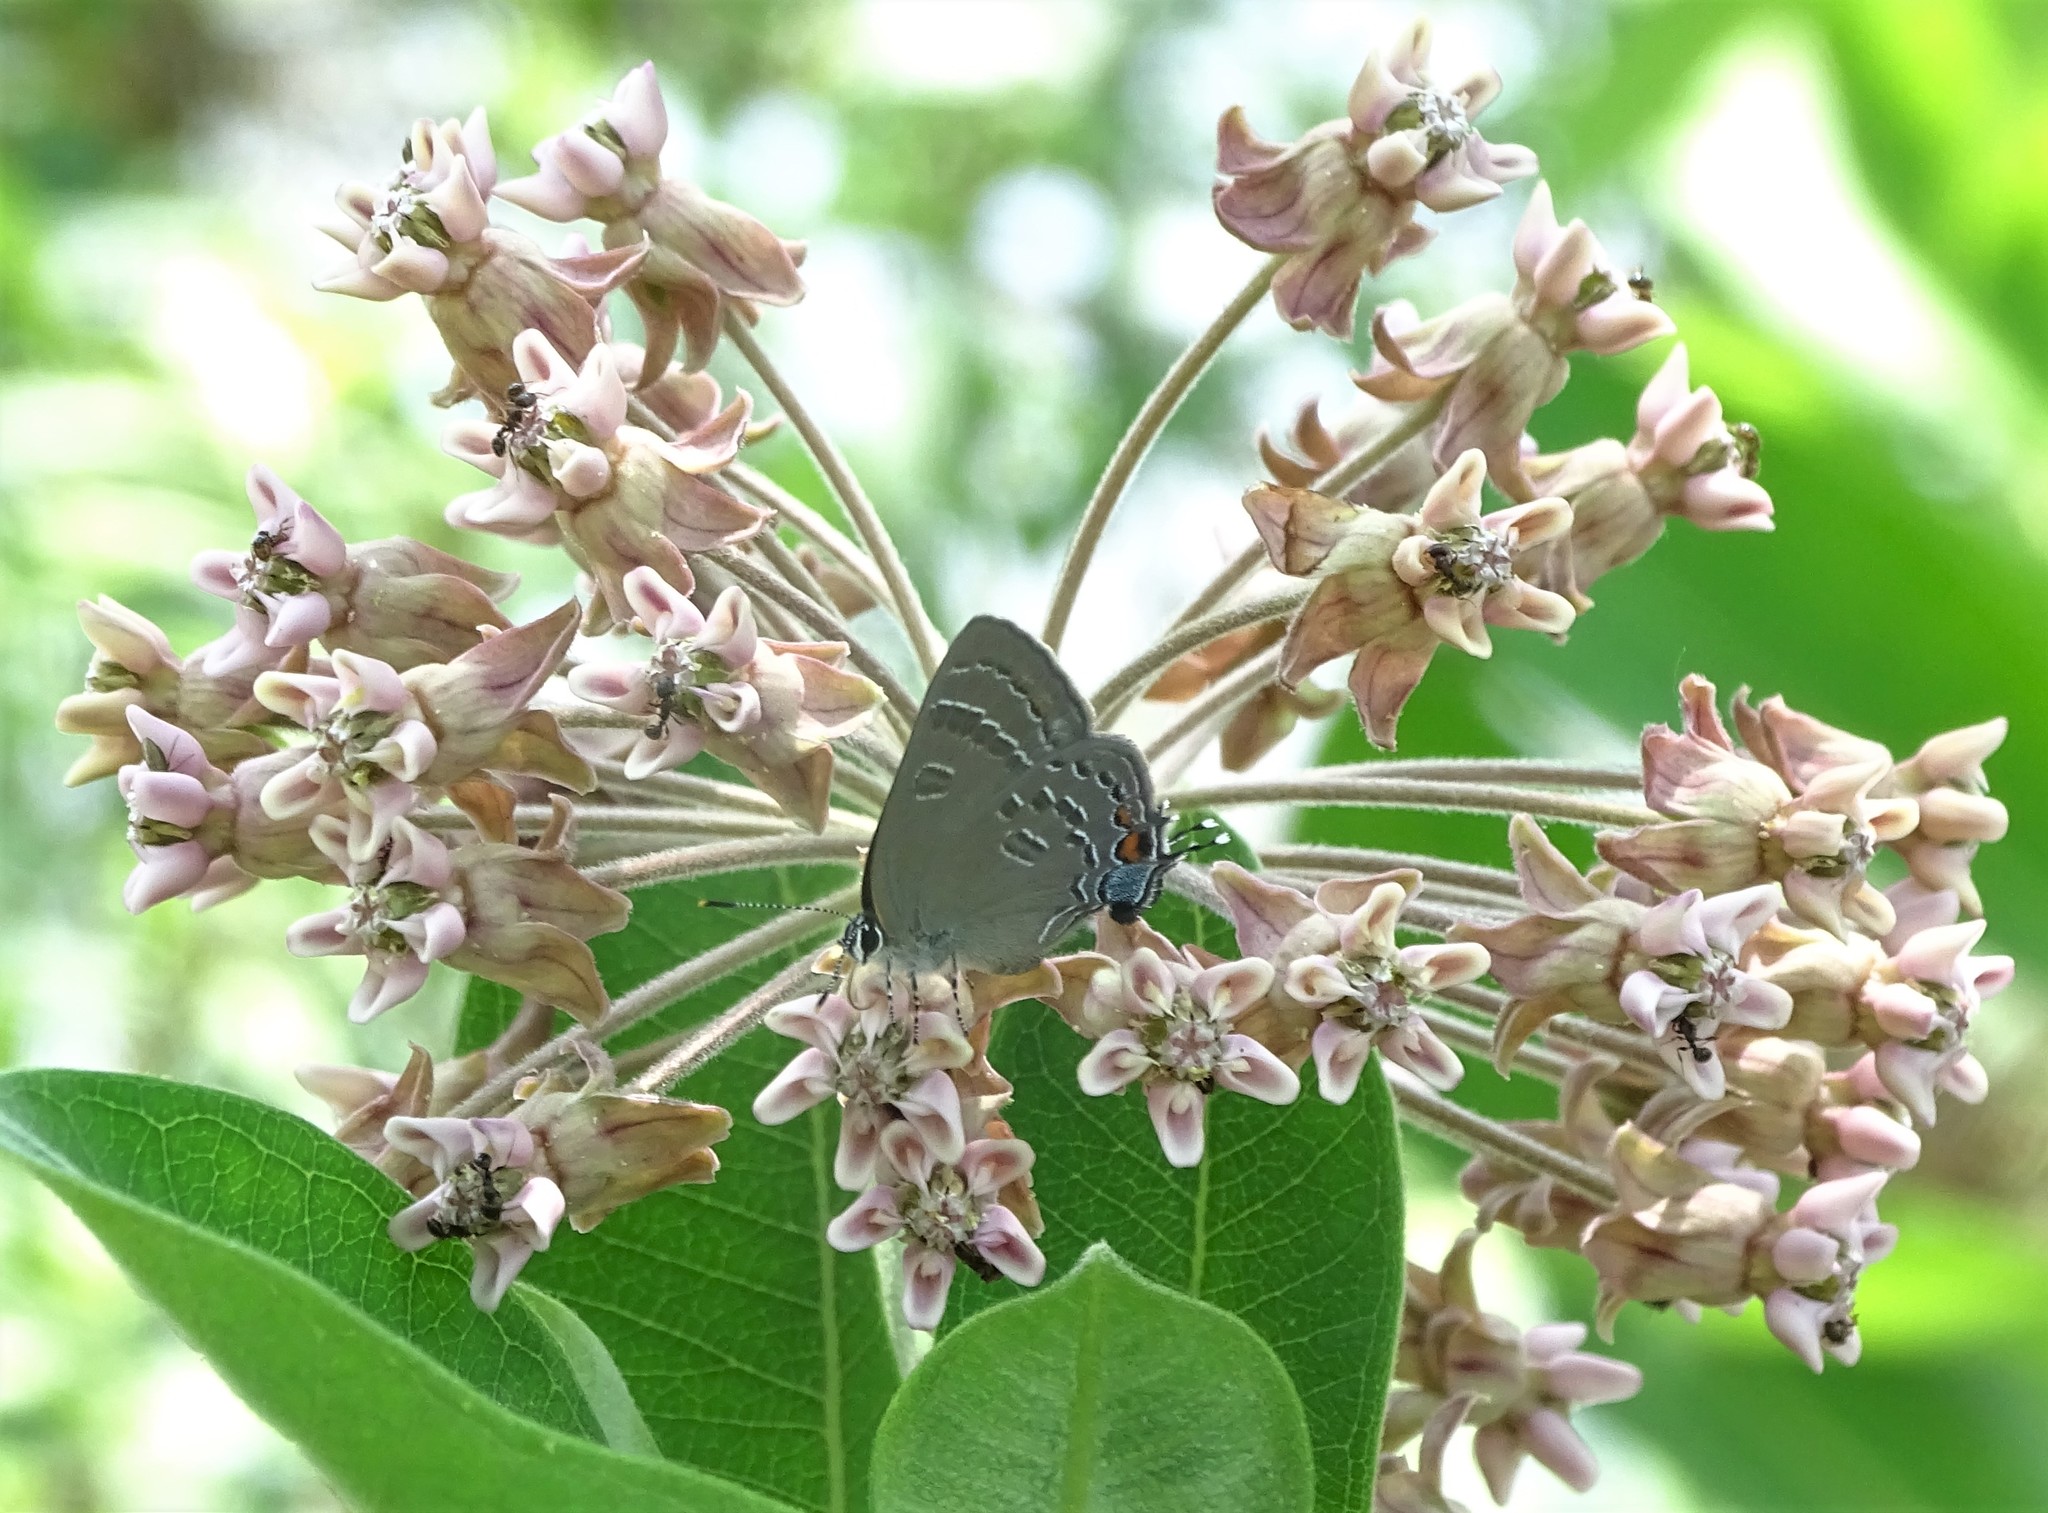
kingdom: Animalia
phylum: Arthropoda
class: Insecta
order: Lepidoptera
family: Lycaenidae
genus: Satyrium
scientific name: Satyrium calanus
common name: Banded hairstreak
